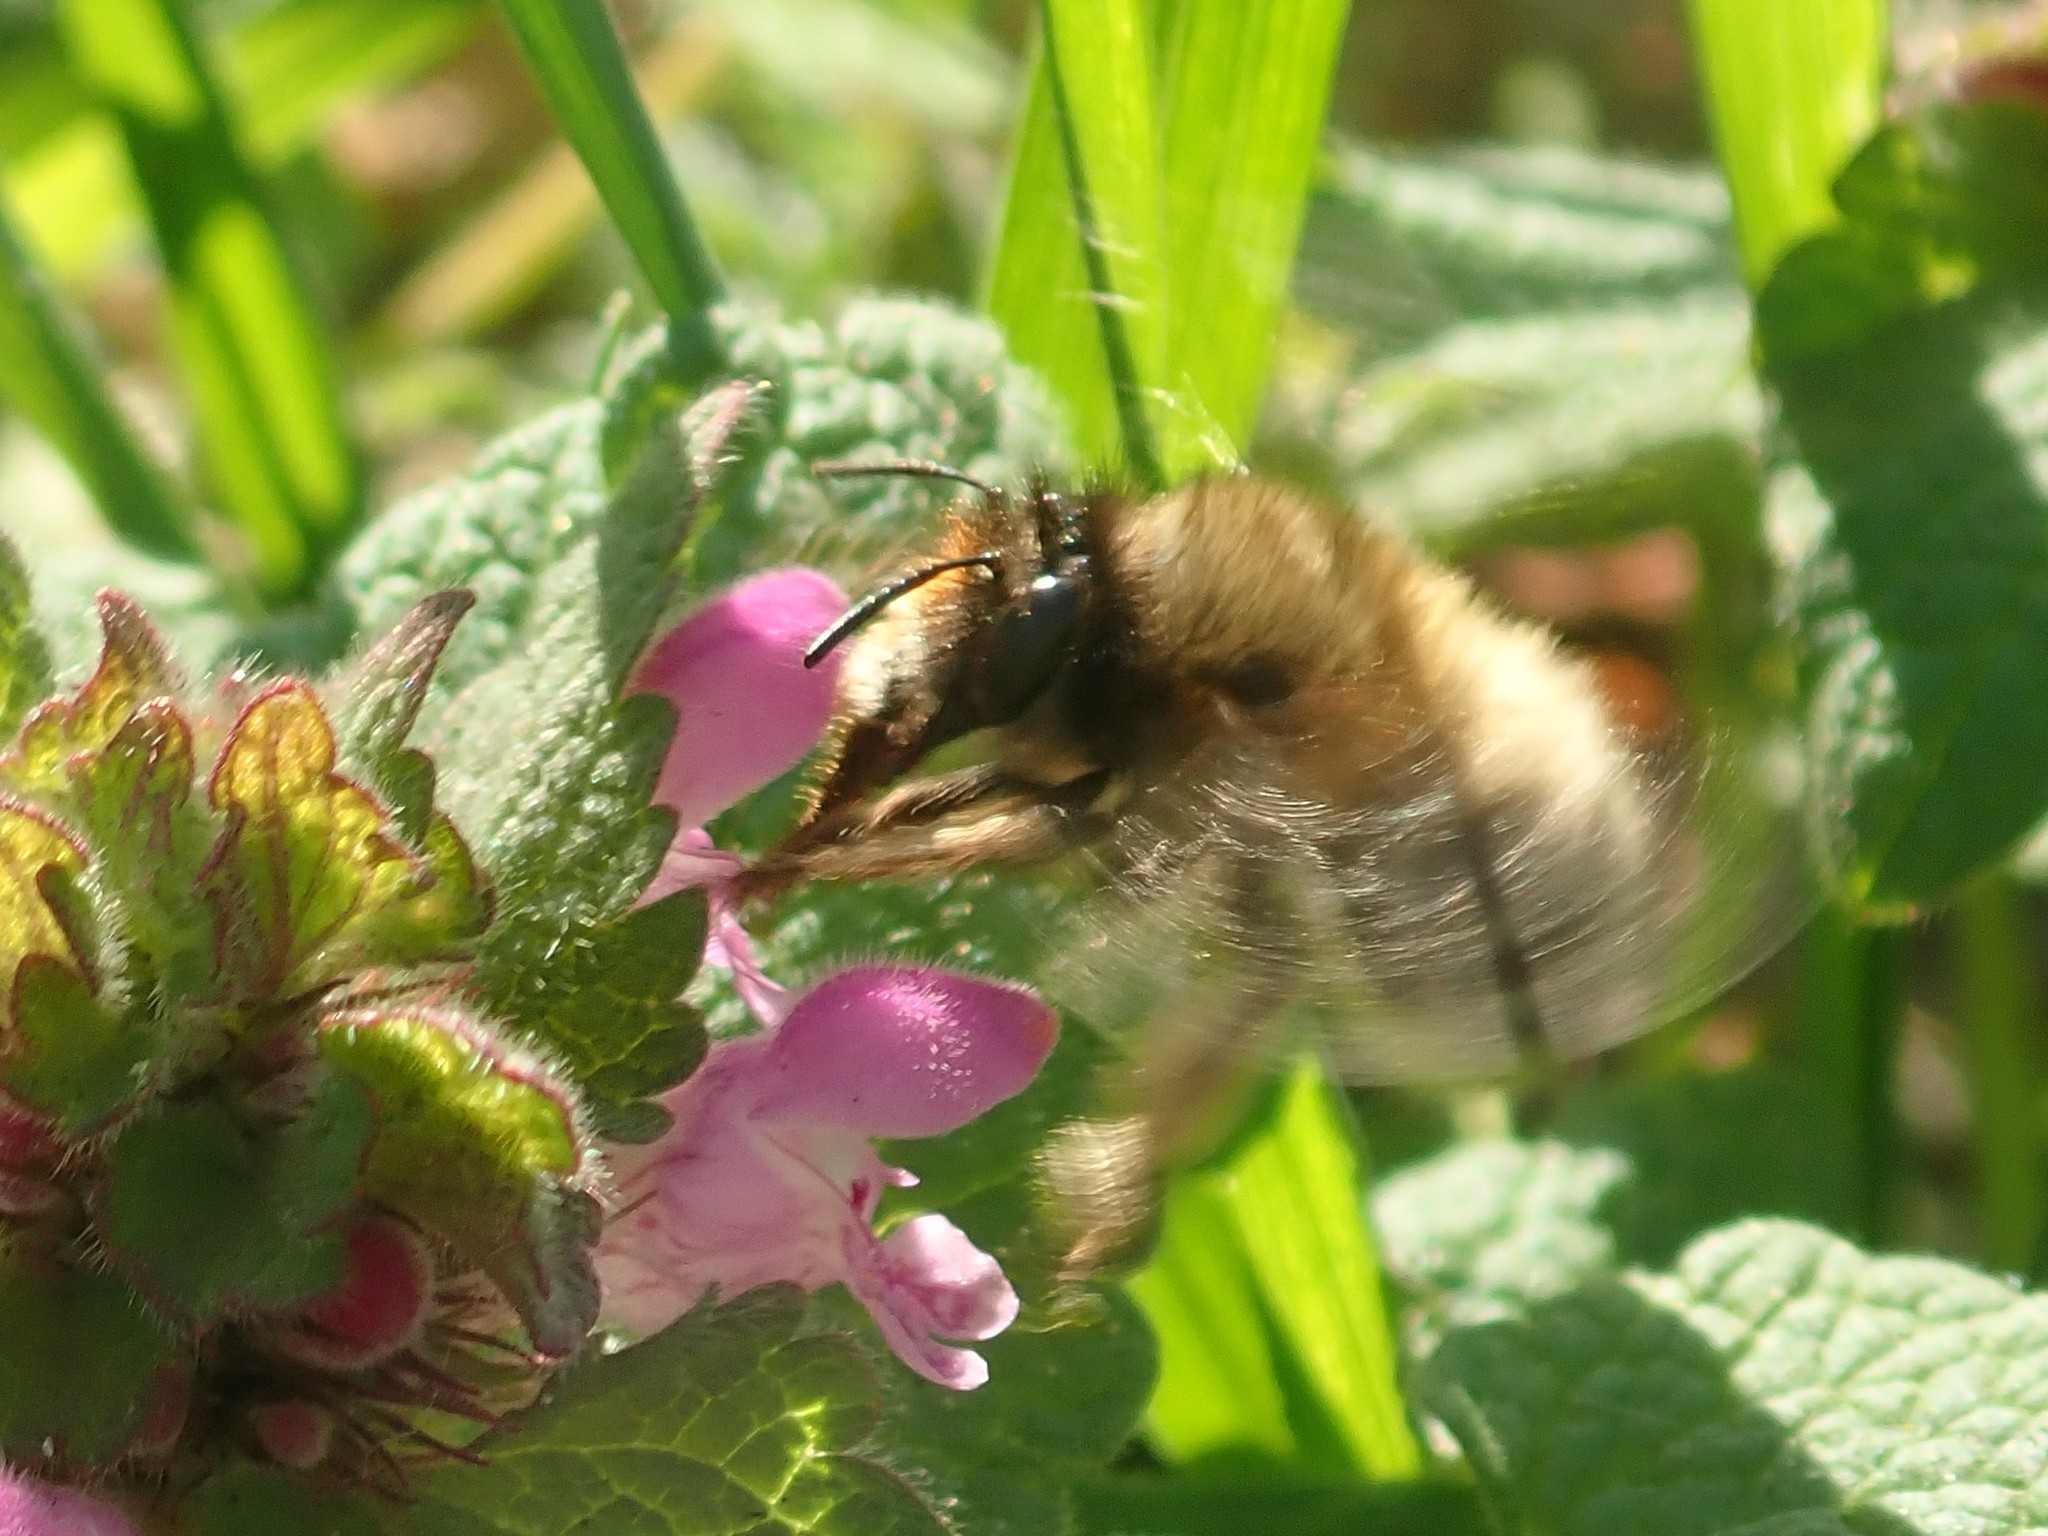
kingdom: Animalia
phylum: Arthropoda
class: Insecta
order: Hymenoptera
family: Apidae
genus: Anthophora
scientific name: Anthophora plumipes
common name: Hairy-footed flower bee
